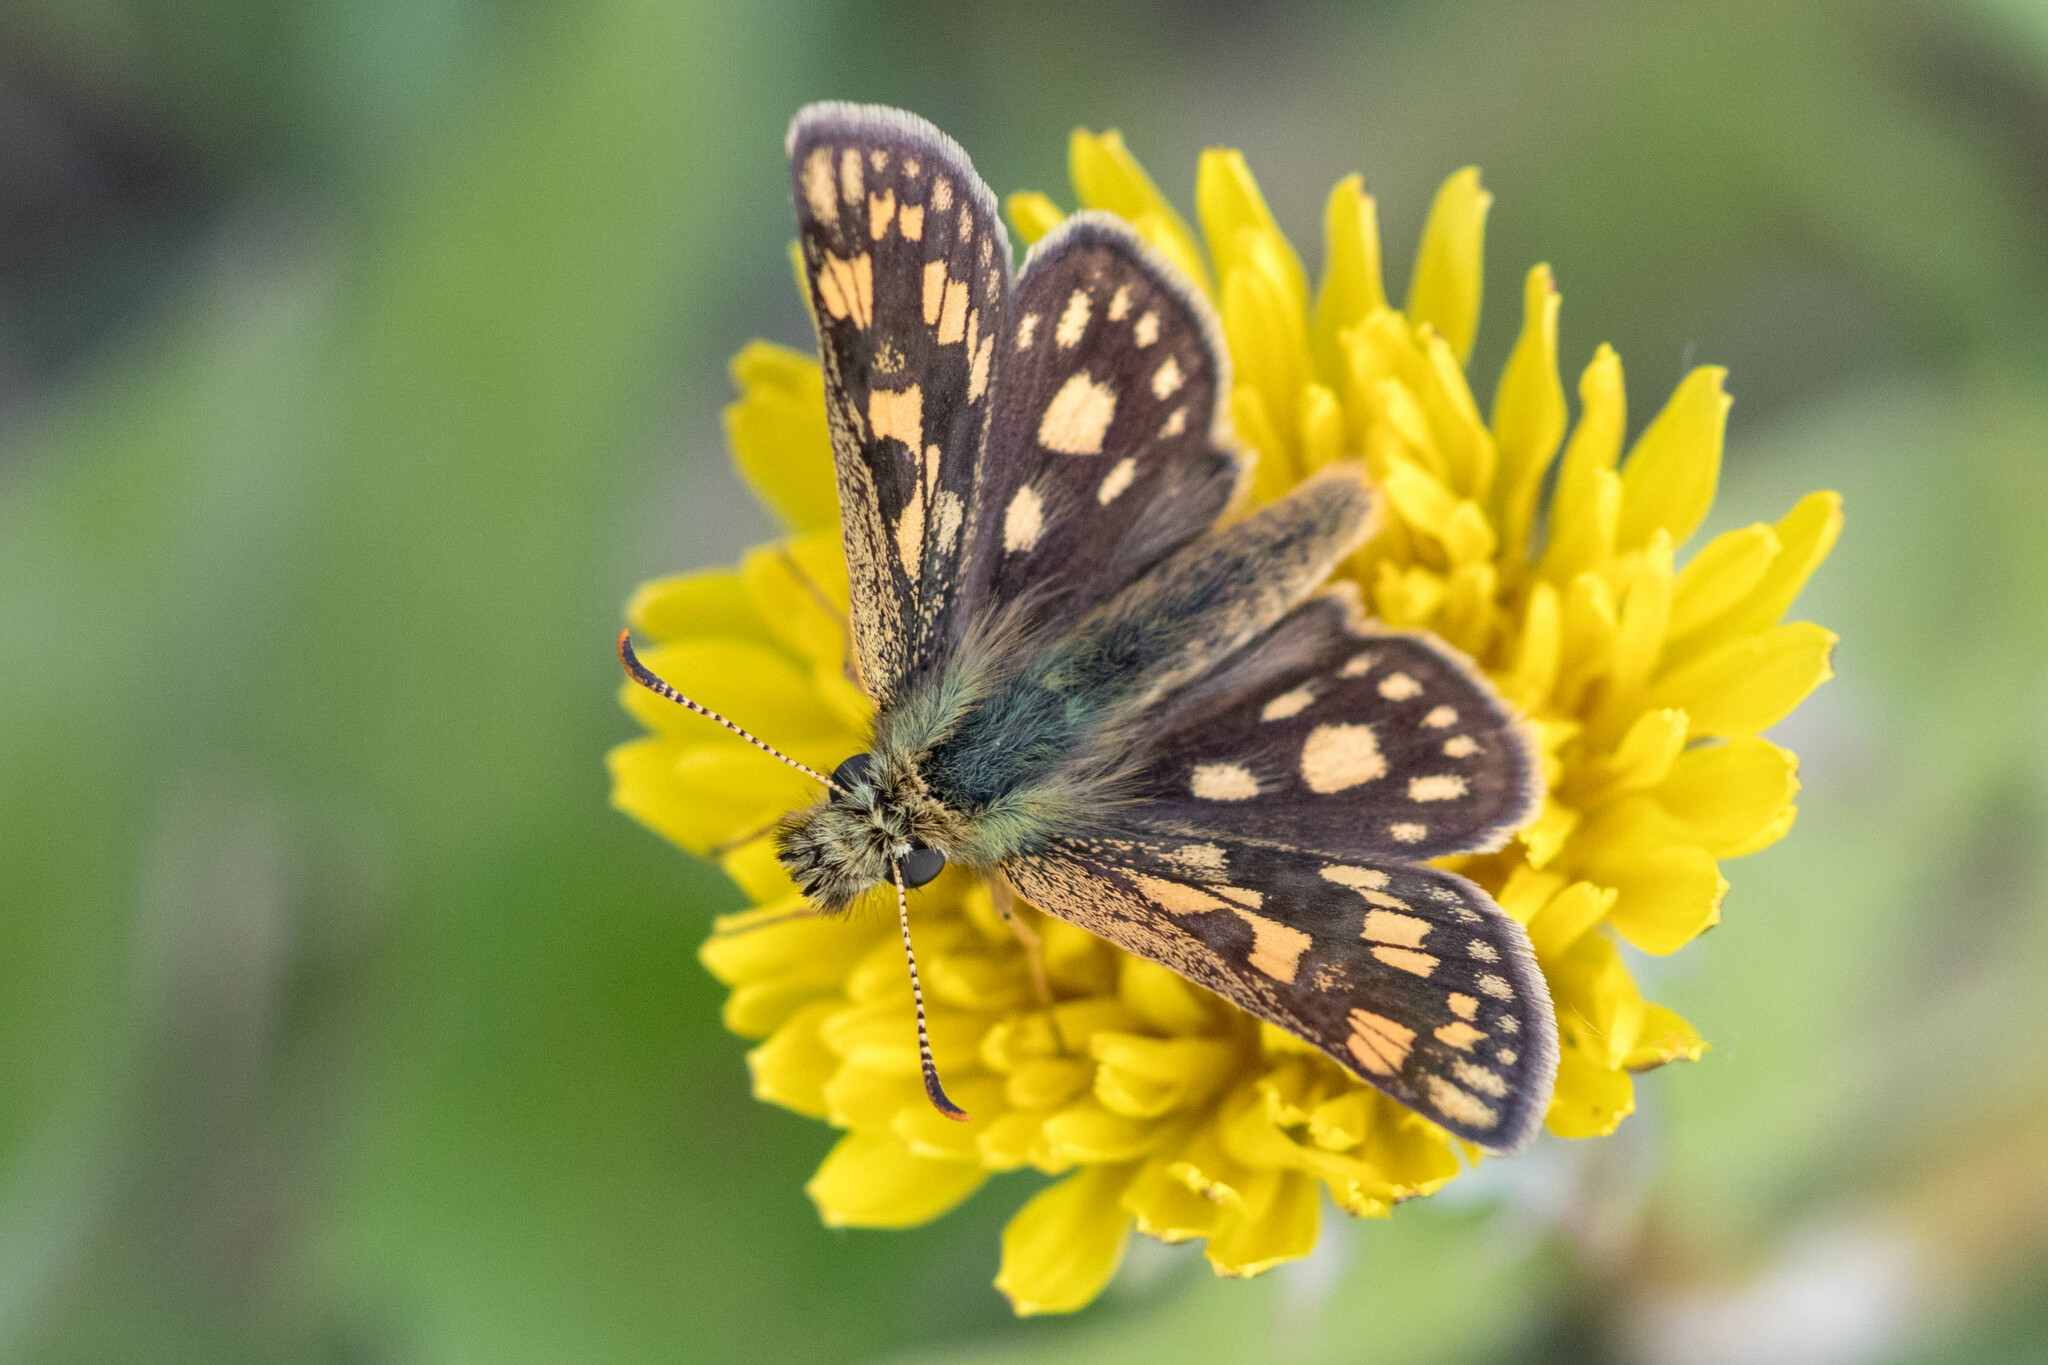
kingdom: Animalia
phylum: Arthropoda
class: Insecta
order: Lepidoptera
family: Hesperiidae
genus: Carterocephalus
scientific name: Carterocephalus palaemon
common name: Chequered skipper
